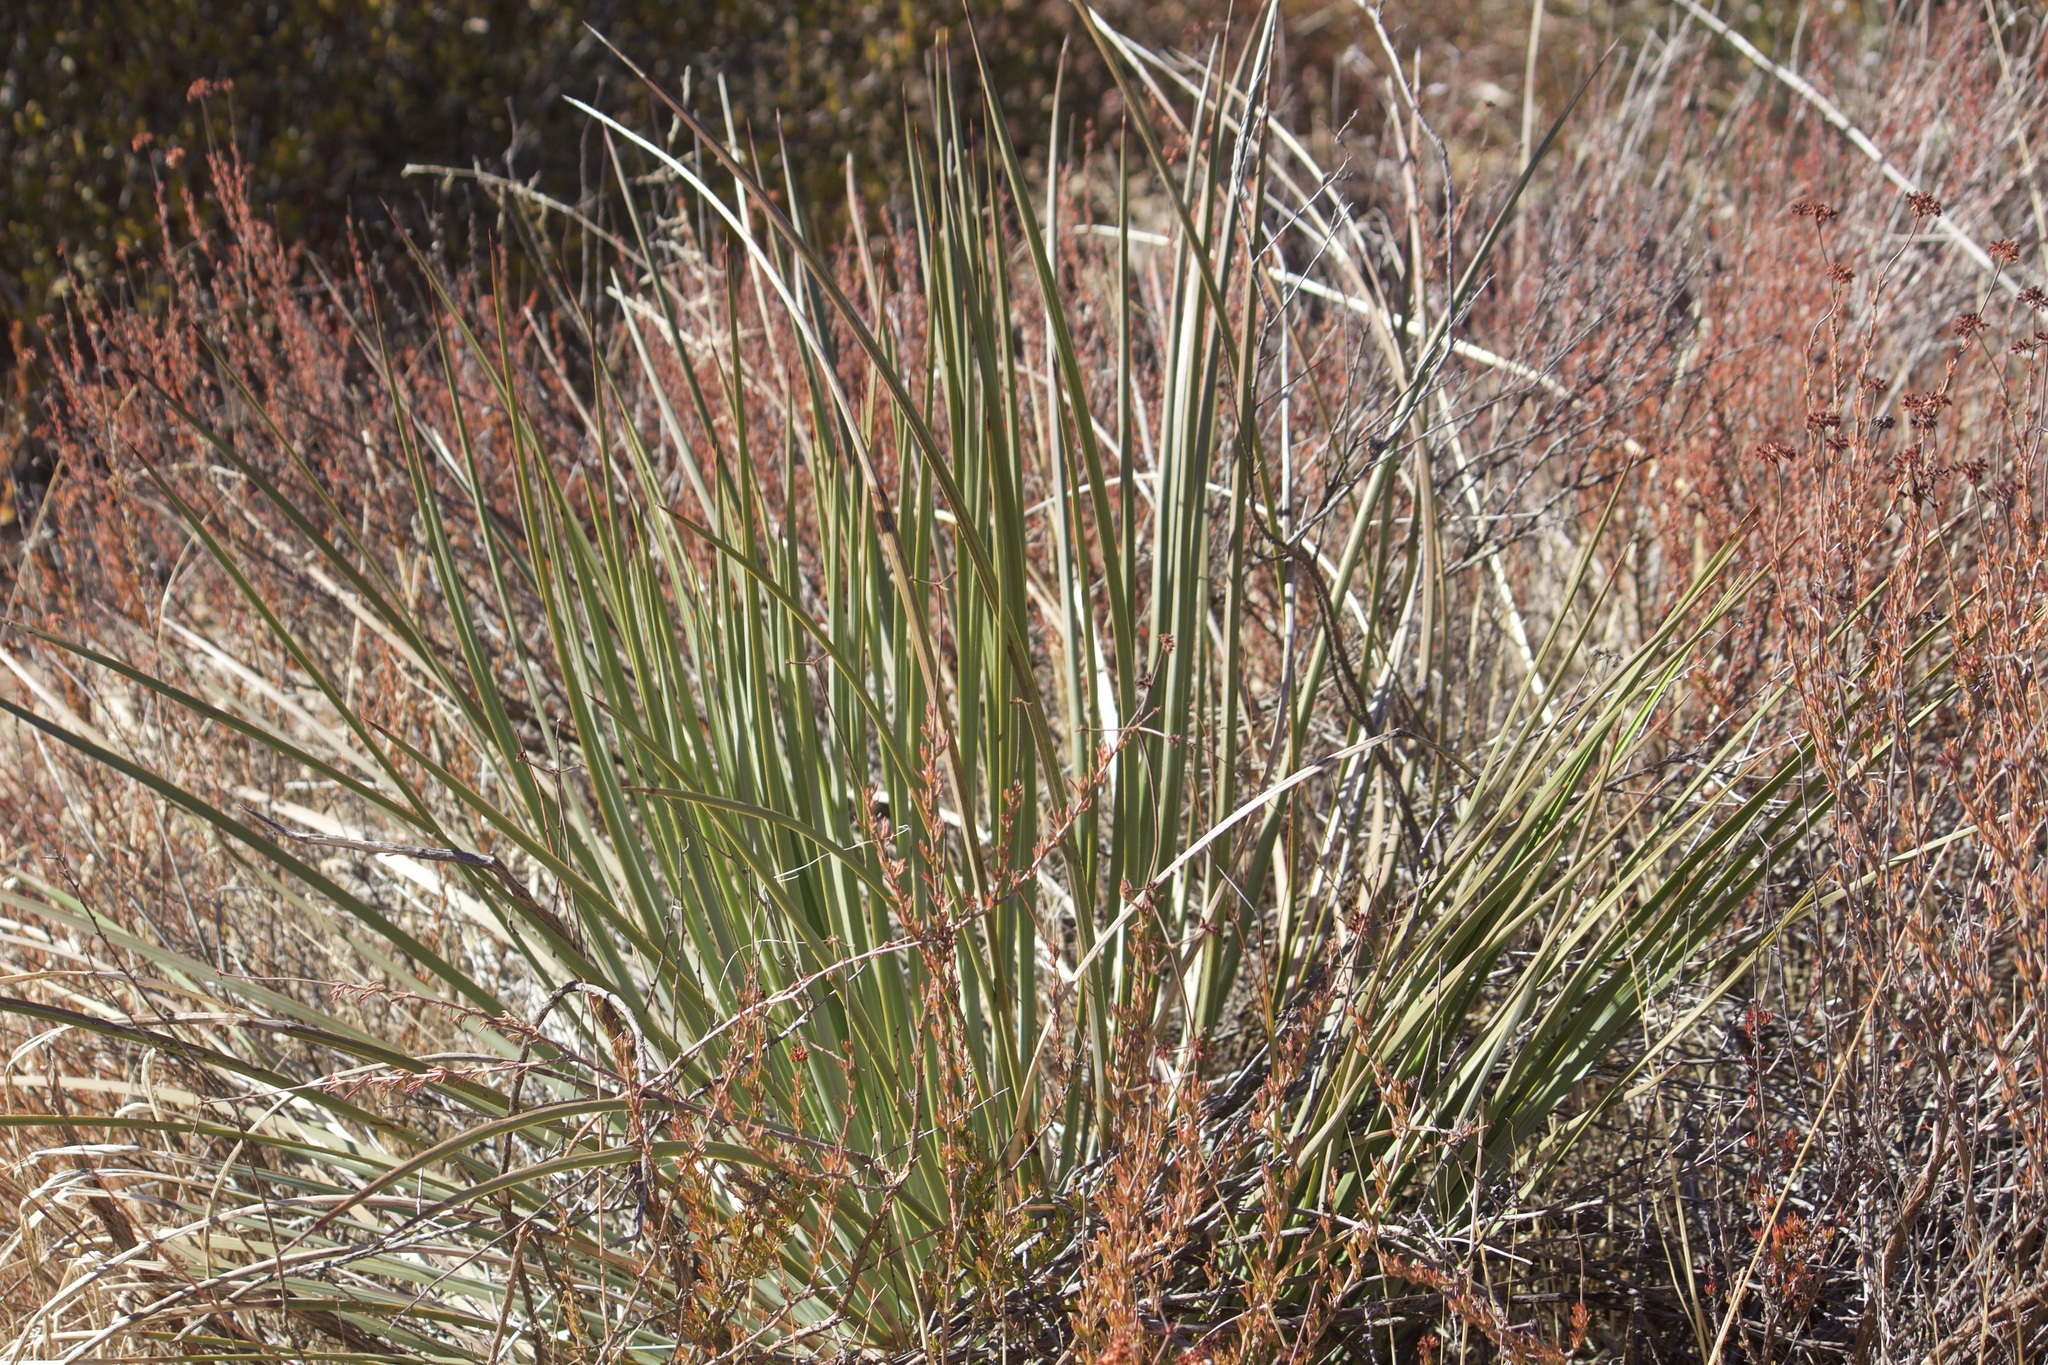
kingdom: Plantae
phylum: Tracheophyta
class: Liliopsida
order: Asparagales
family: Asparagaceae
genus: Hesperoyucca
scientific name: Hesperoyucca whipplei
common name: Our lord's-candle
